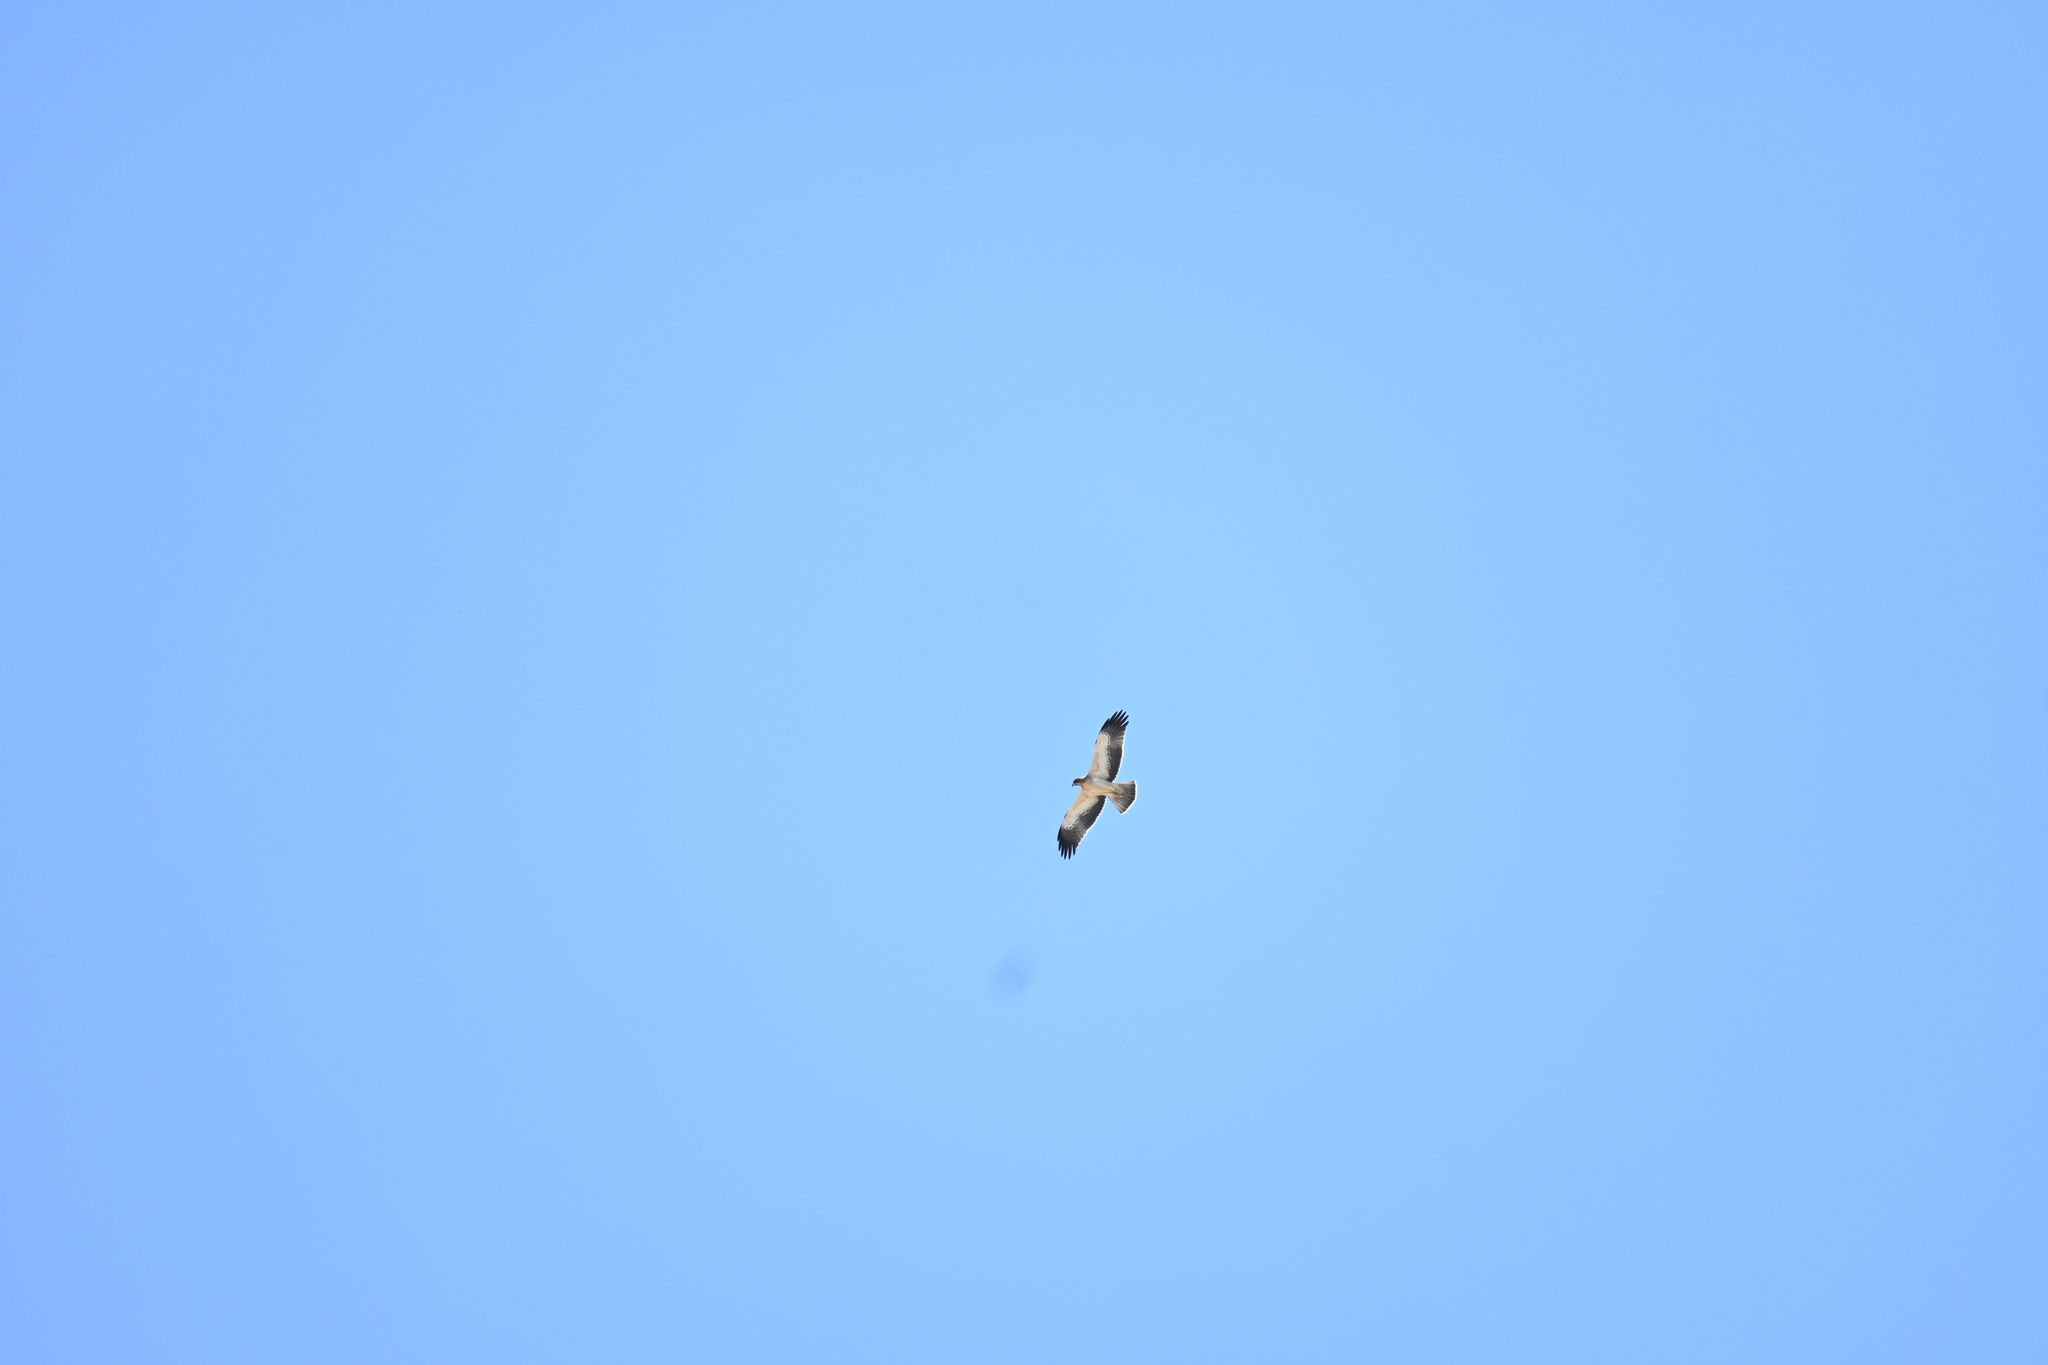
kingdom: Animalia
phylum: Chordata
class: Aves
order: Accipitriformes
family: Accipitridae
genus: Hieraaetus
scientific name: Hieraaetus pennatus
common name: Booted eagle
